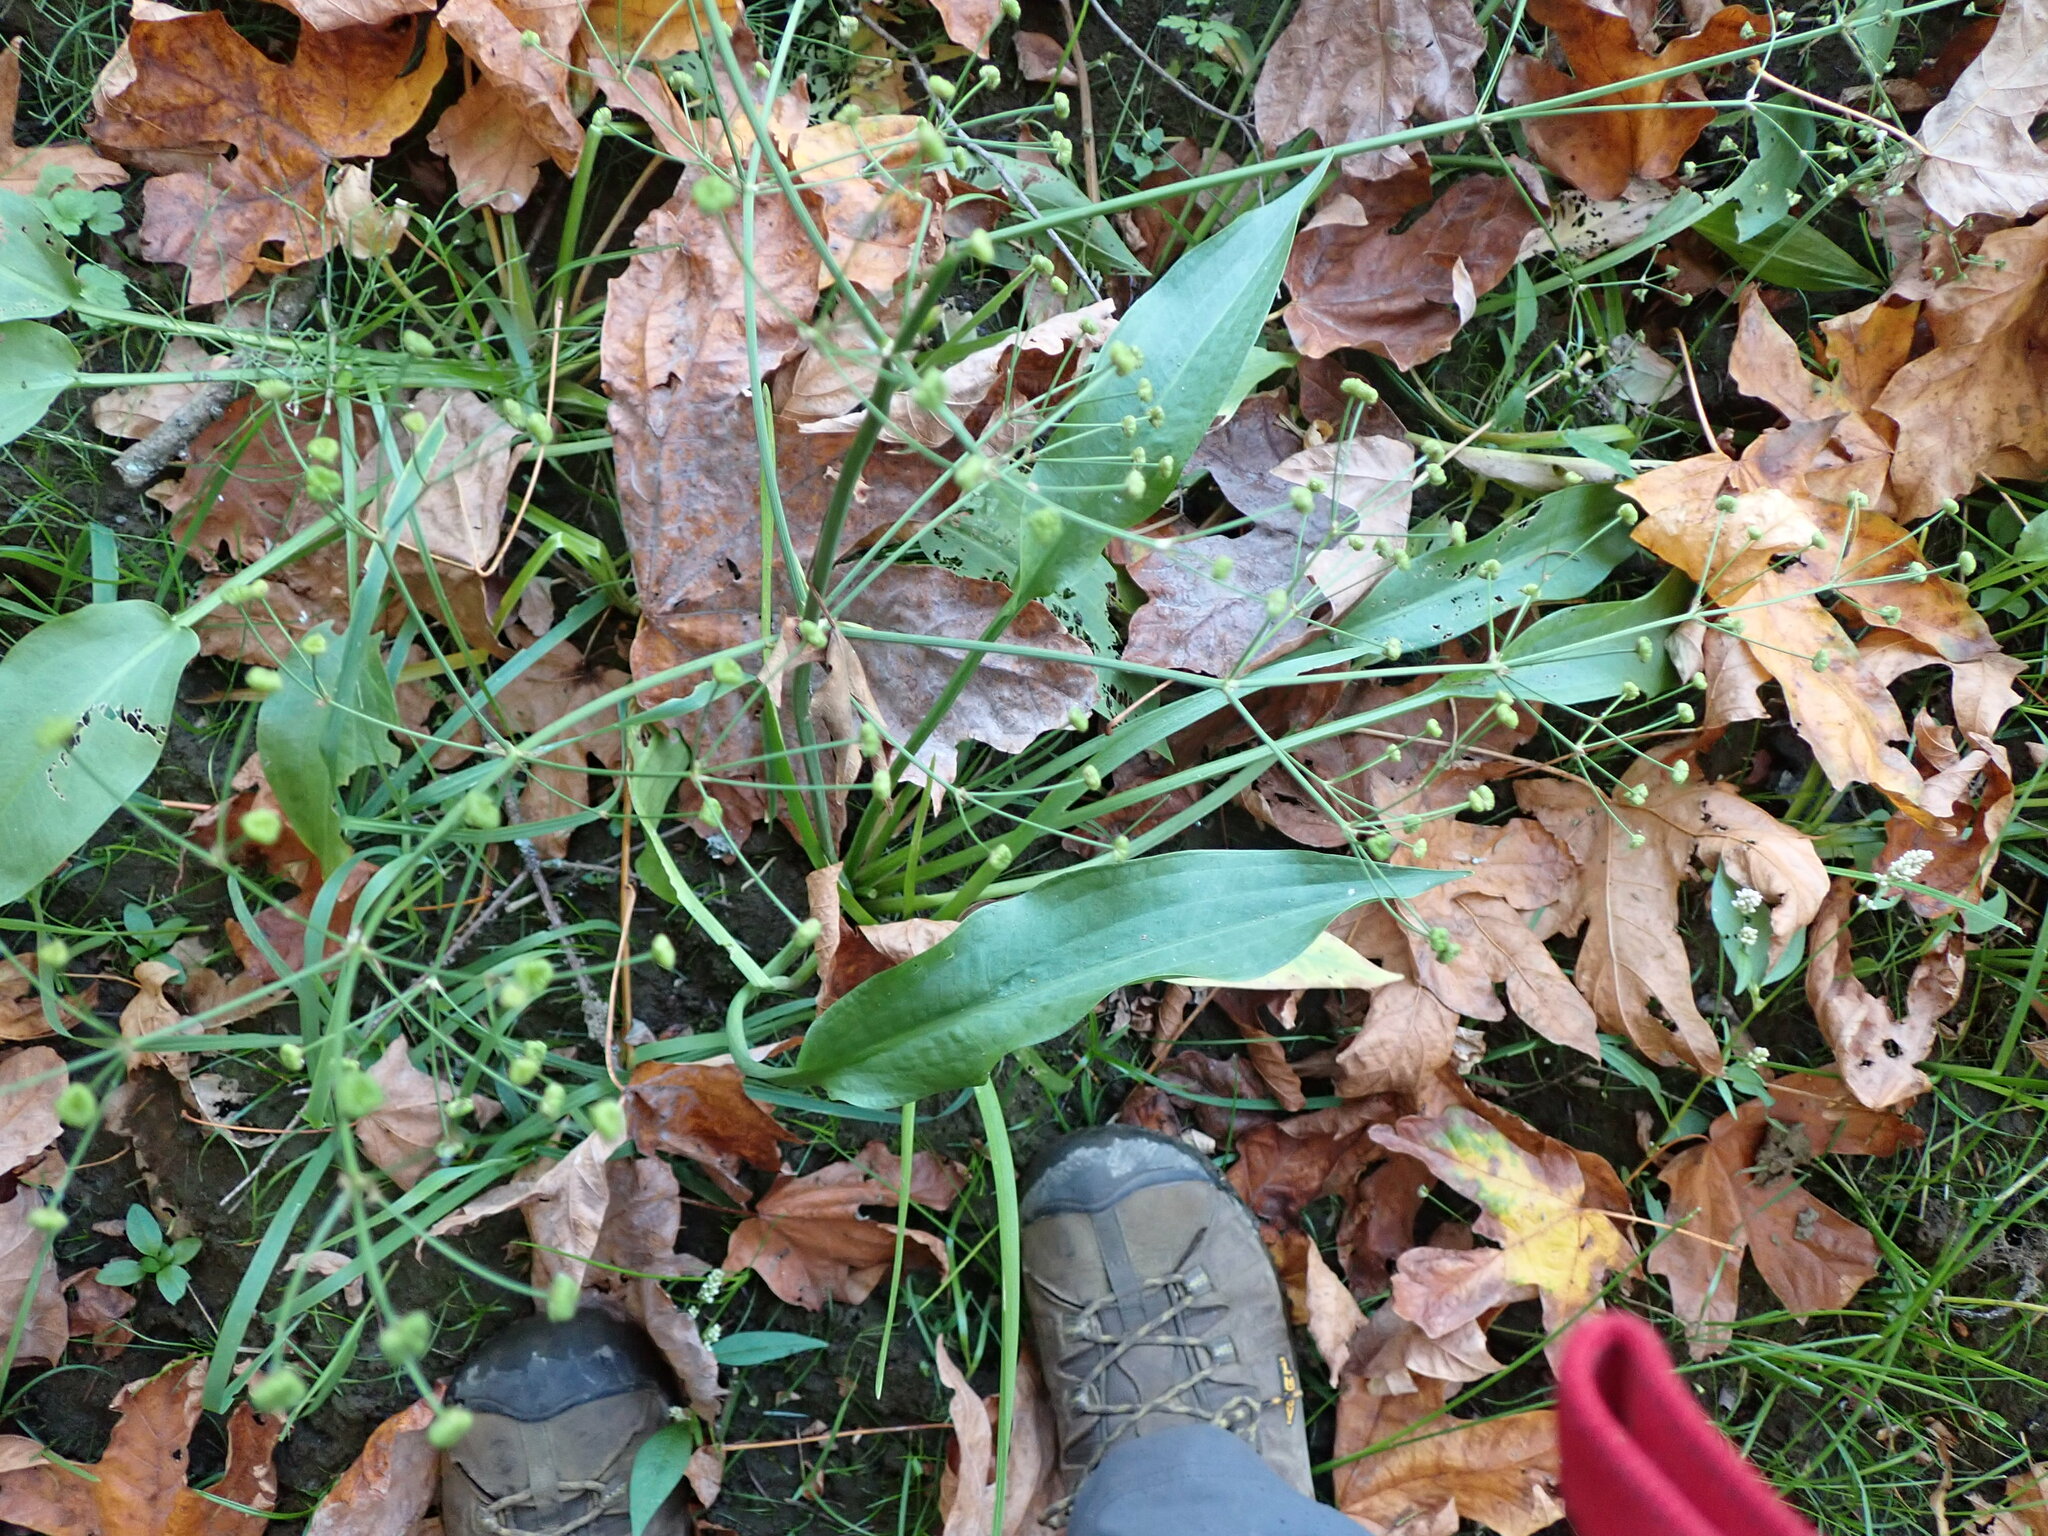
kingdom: Plantae
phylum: Tracheophyta
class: Liliopsida
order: Alismatales
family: Alismataceae
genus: Alisma
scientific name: Alisma lanceolatum
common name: Narrow-leaved water-plantain
